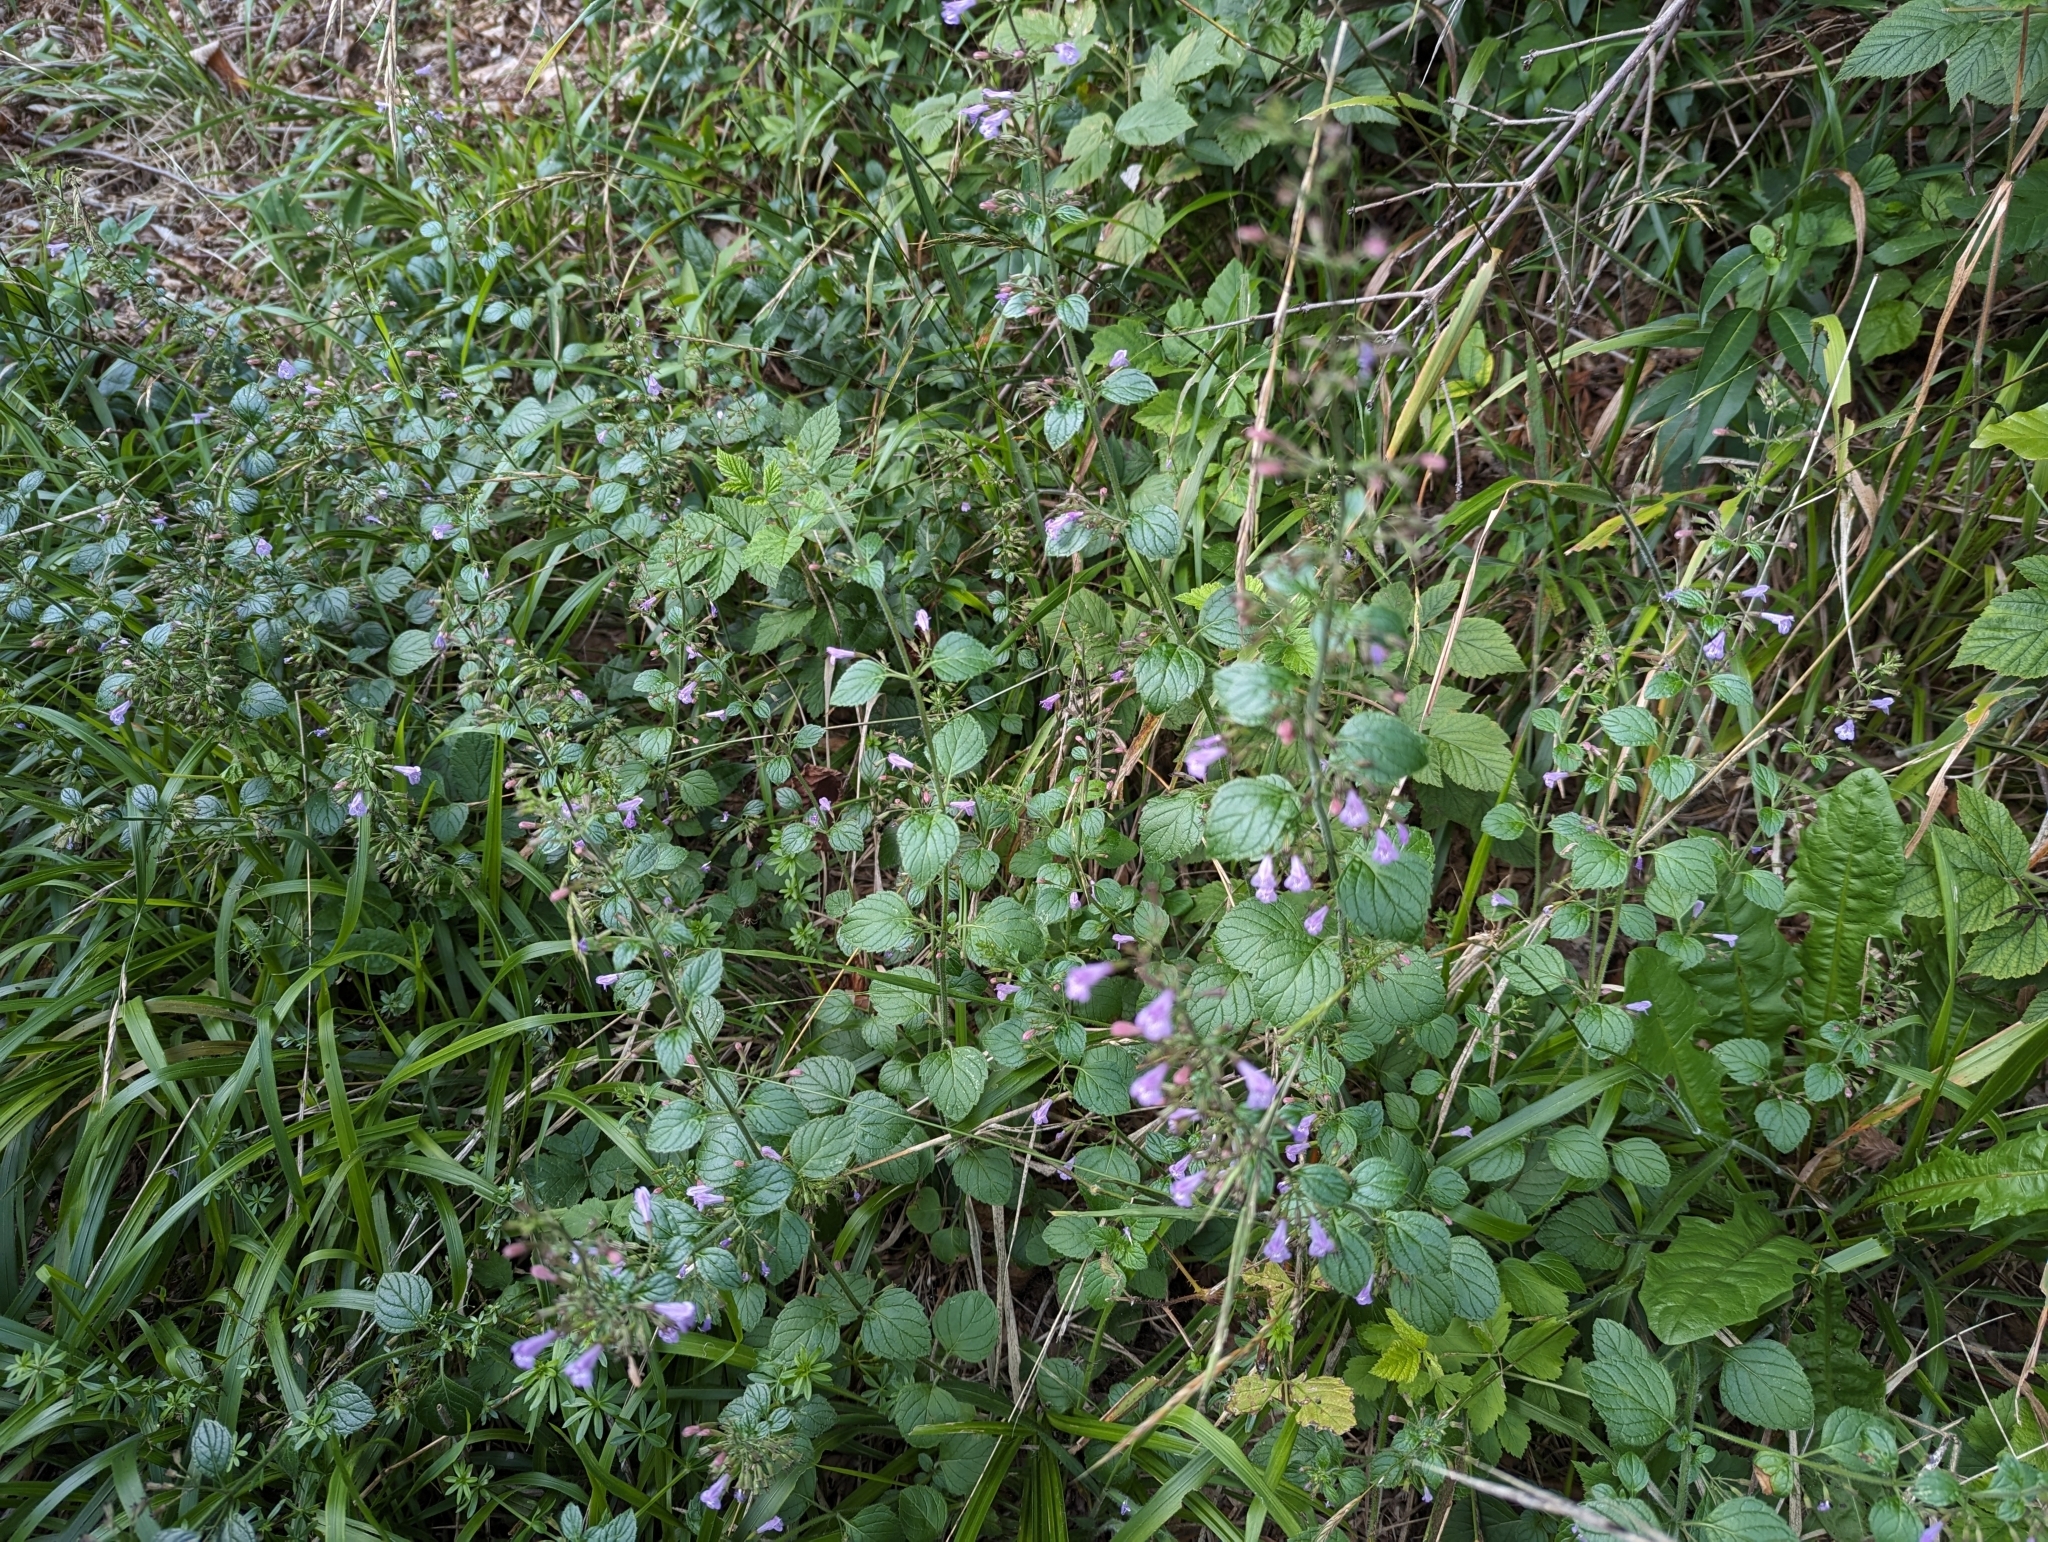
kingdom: Plantae
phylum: Tracheophyta
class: Magnoliopsida
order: Lamiales
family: Lamiaceae
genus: Clinopodium
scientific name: Clinopodium menthifolium
